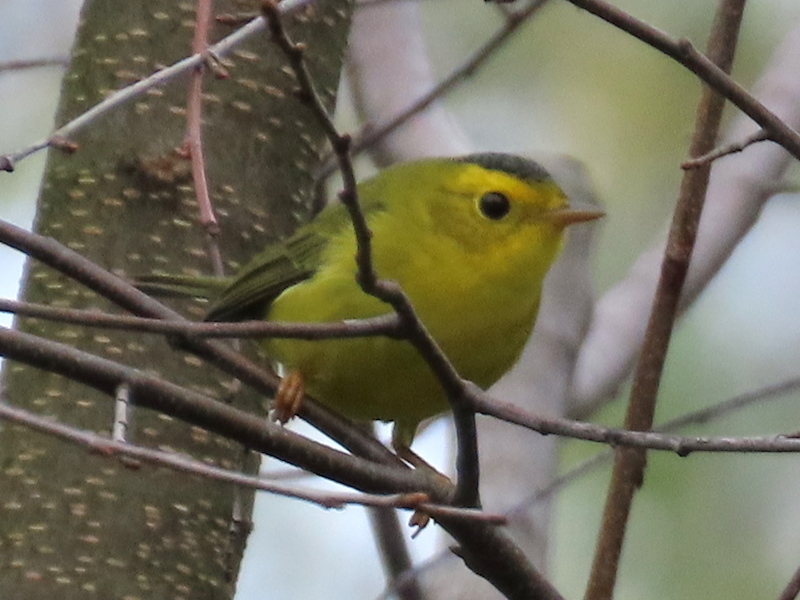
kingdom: Animalia
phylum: Chordata
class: Aves
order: Passeriformes
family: Parulidae
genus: Cardellina
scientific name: Cardellina pusilla
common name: Wilson's warbler
